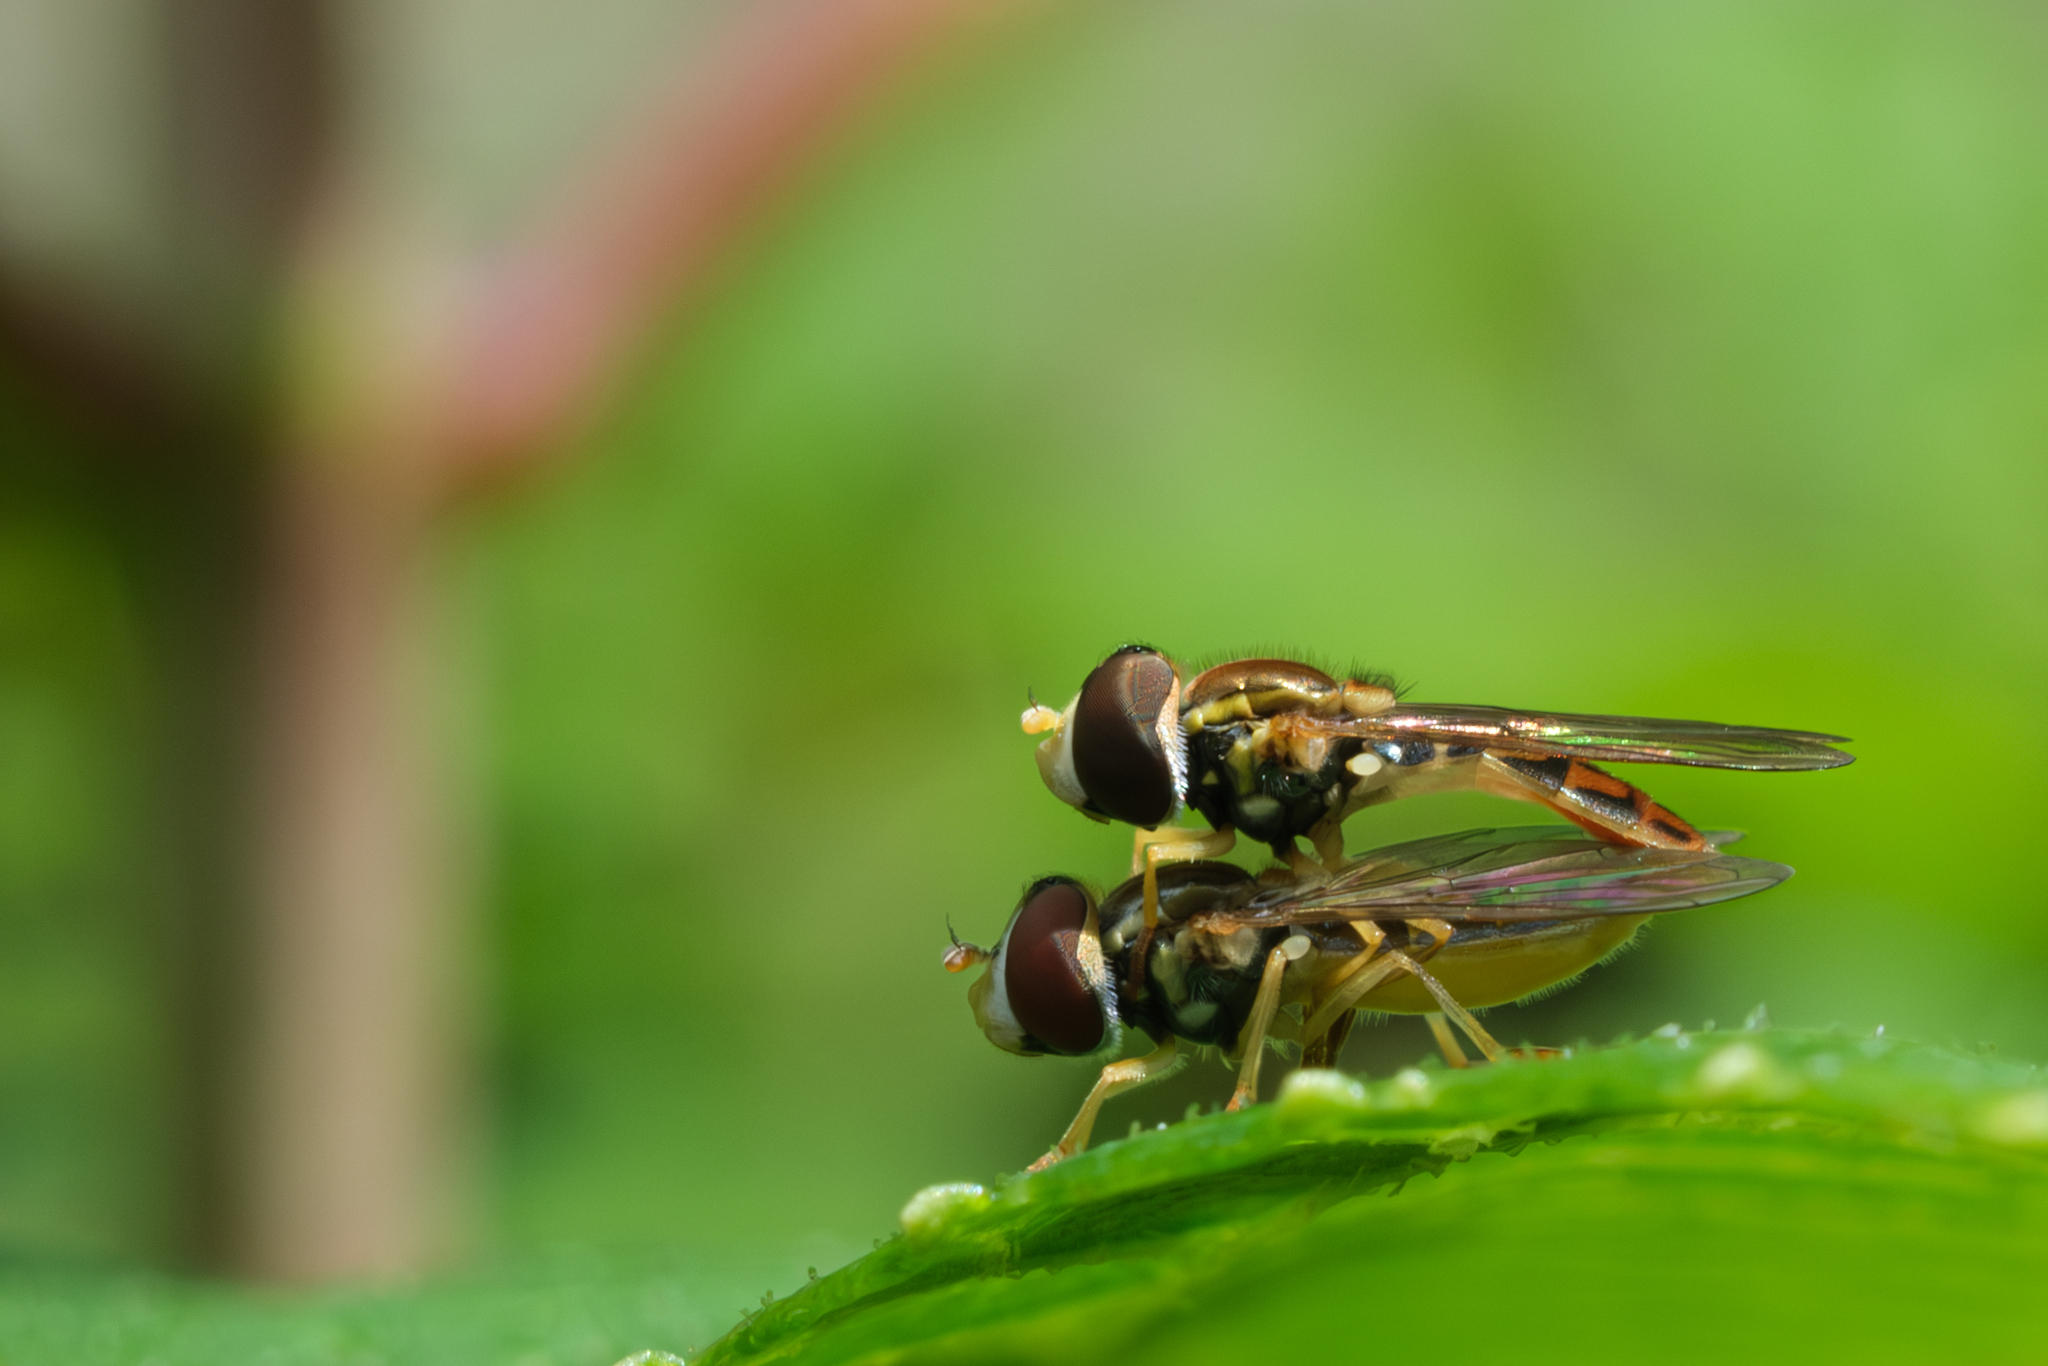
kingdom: Animalia
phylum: Arthropoda
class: Insecta
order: Diptera
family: Syrphidae
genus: Toxomerus
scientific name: Toxomerus marginatus
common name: Syrphid fly
